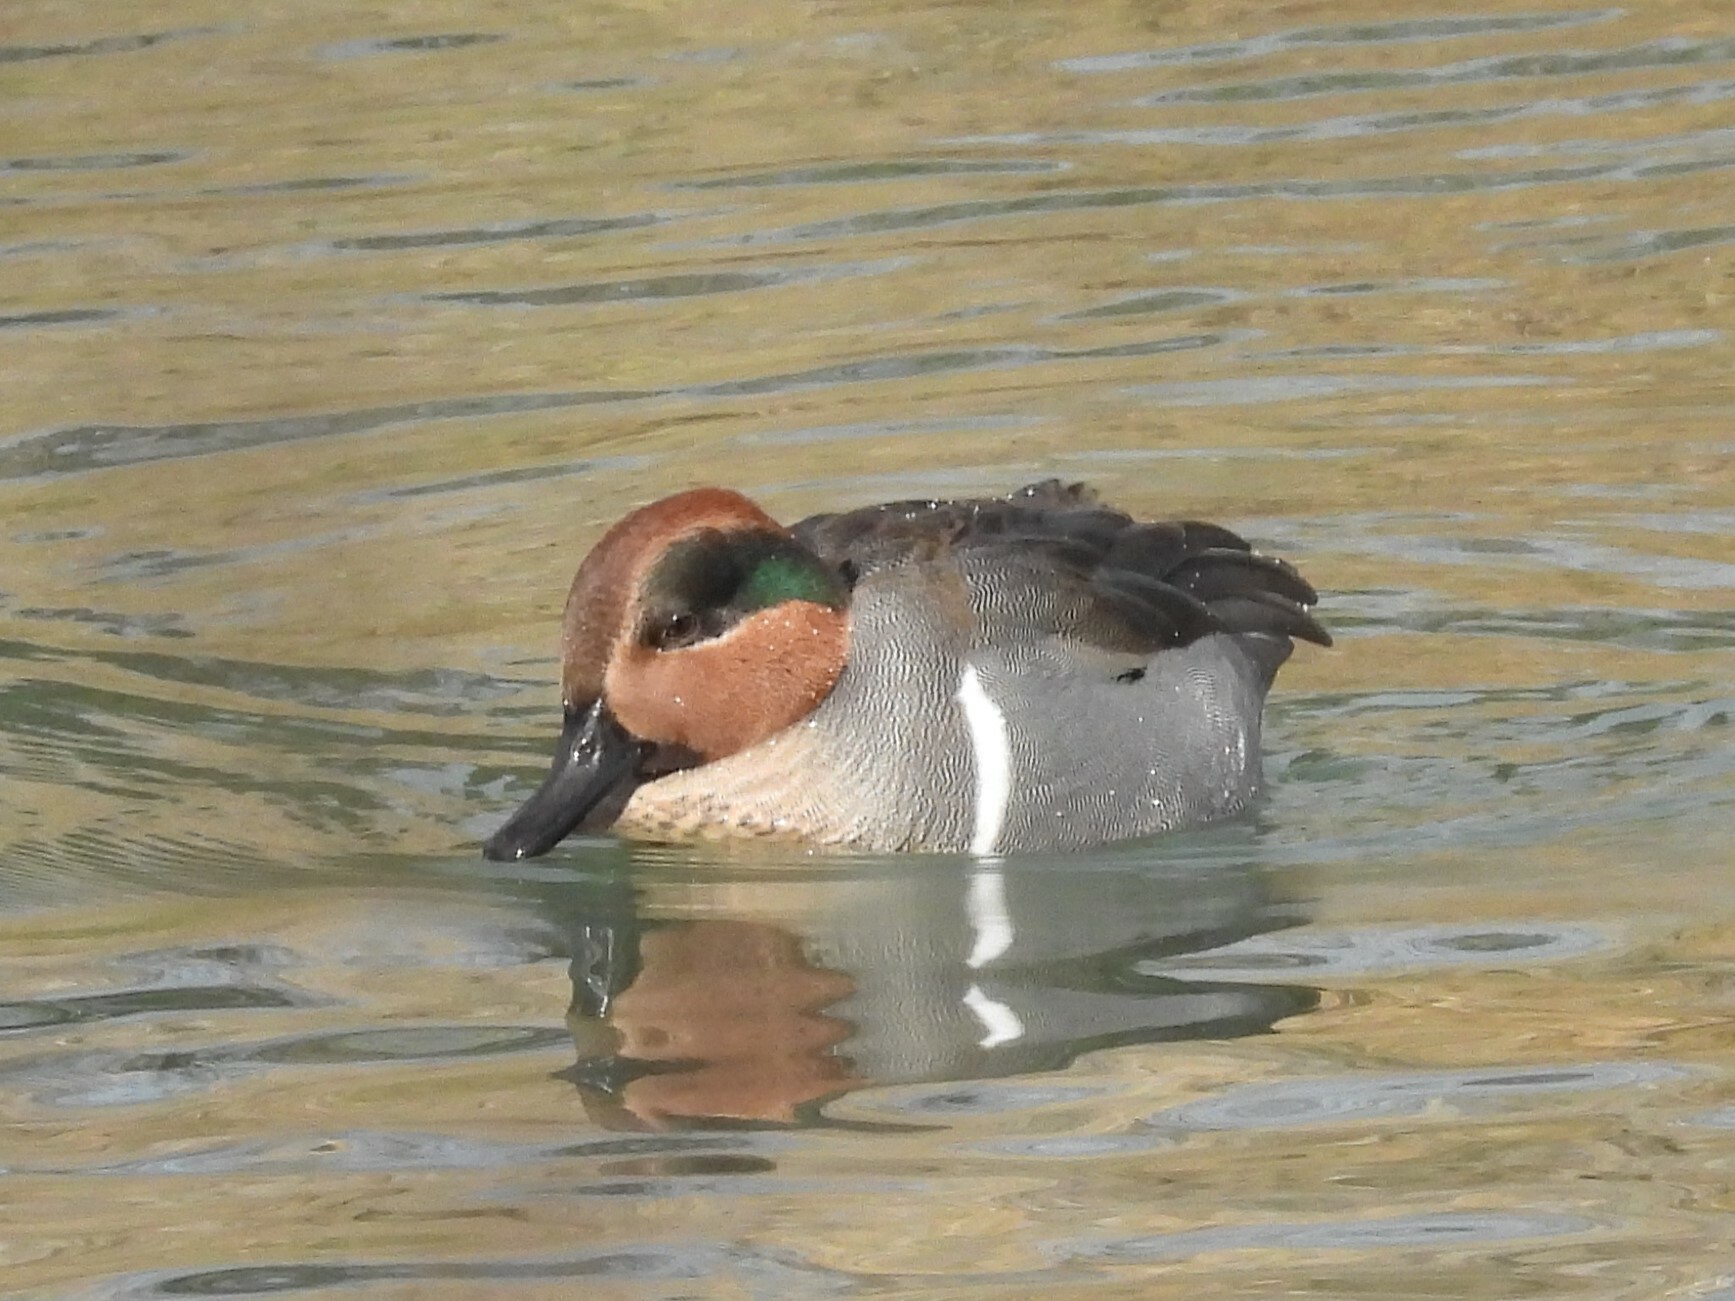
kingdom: Animalia
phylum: Chordata
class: Aves
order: Anseriformes
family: Anatidae
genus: Anas
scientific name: Anas crecca
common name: Eurasian teal
